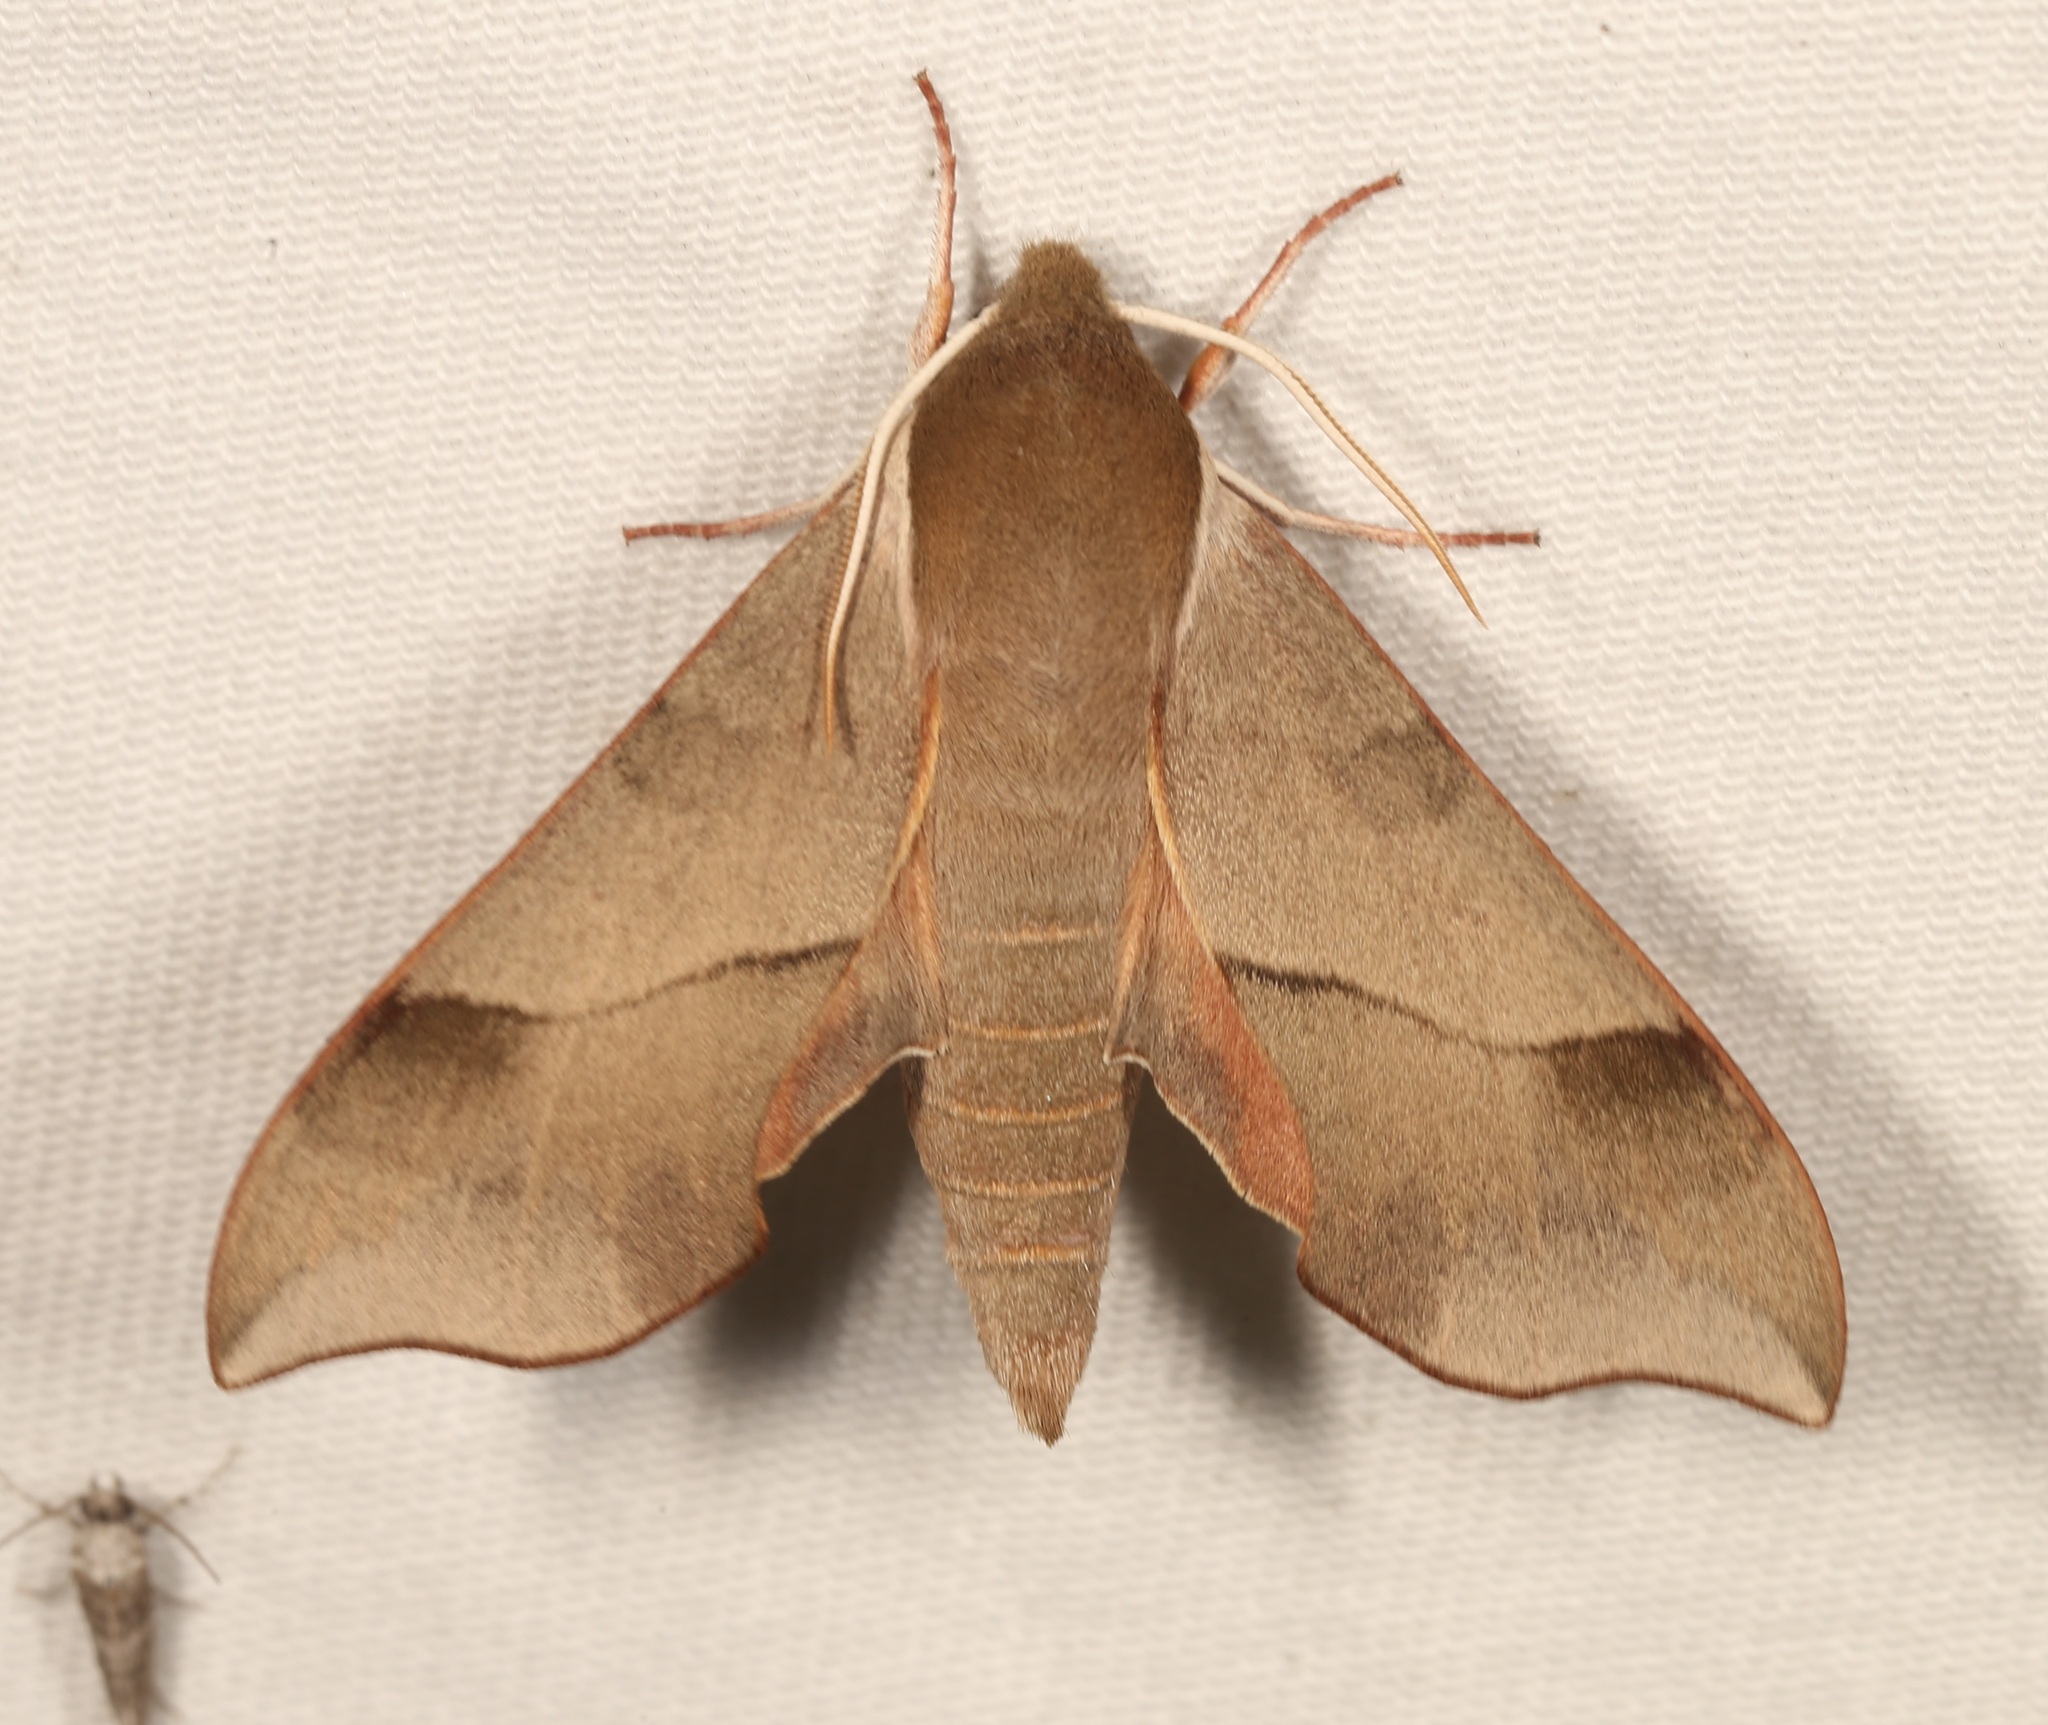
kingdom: Animalia
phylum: Arthropoda
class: Insecta
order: Lepidoptera
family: Sphingidae
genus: Darapsa
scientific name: Darapsa myron
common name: Hog sphinx
